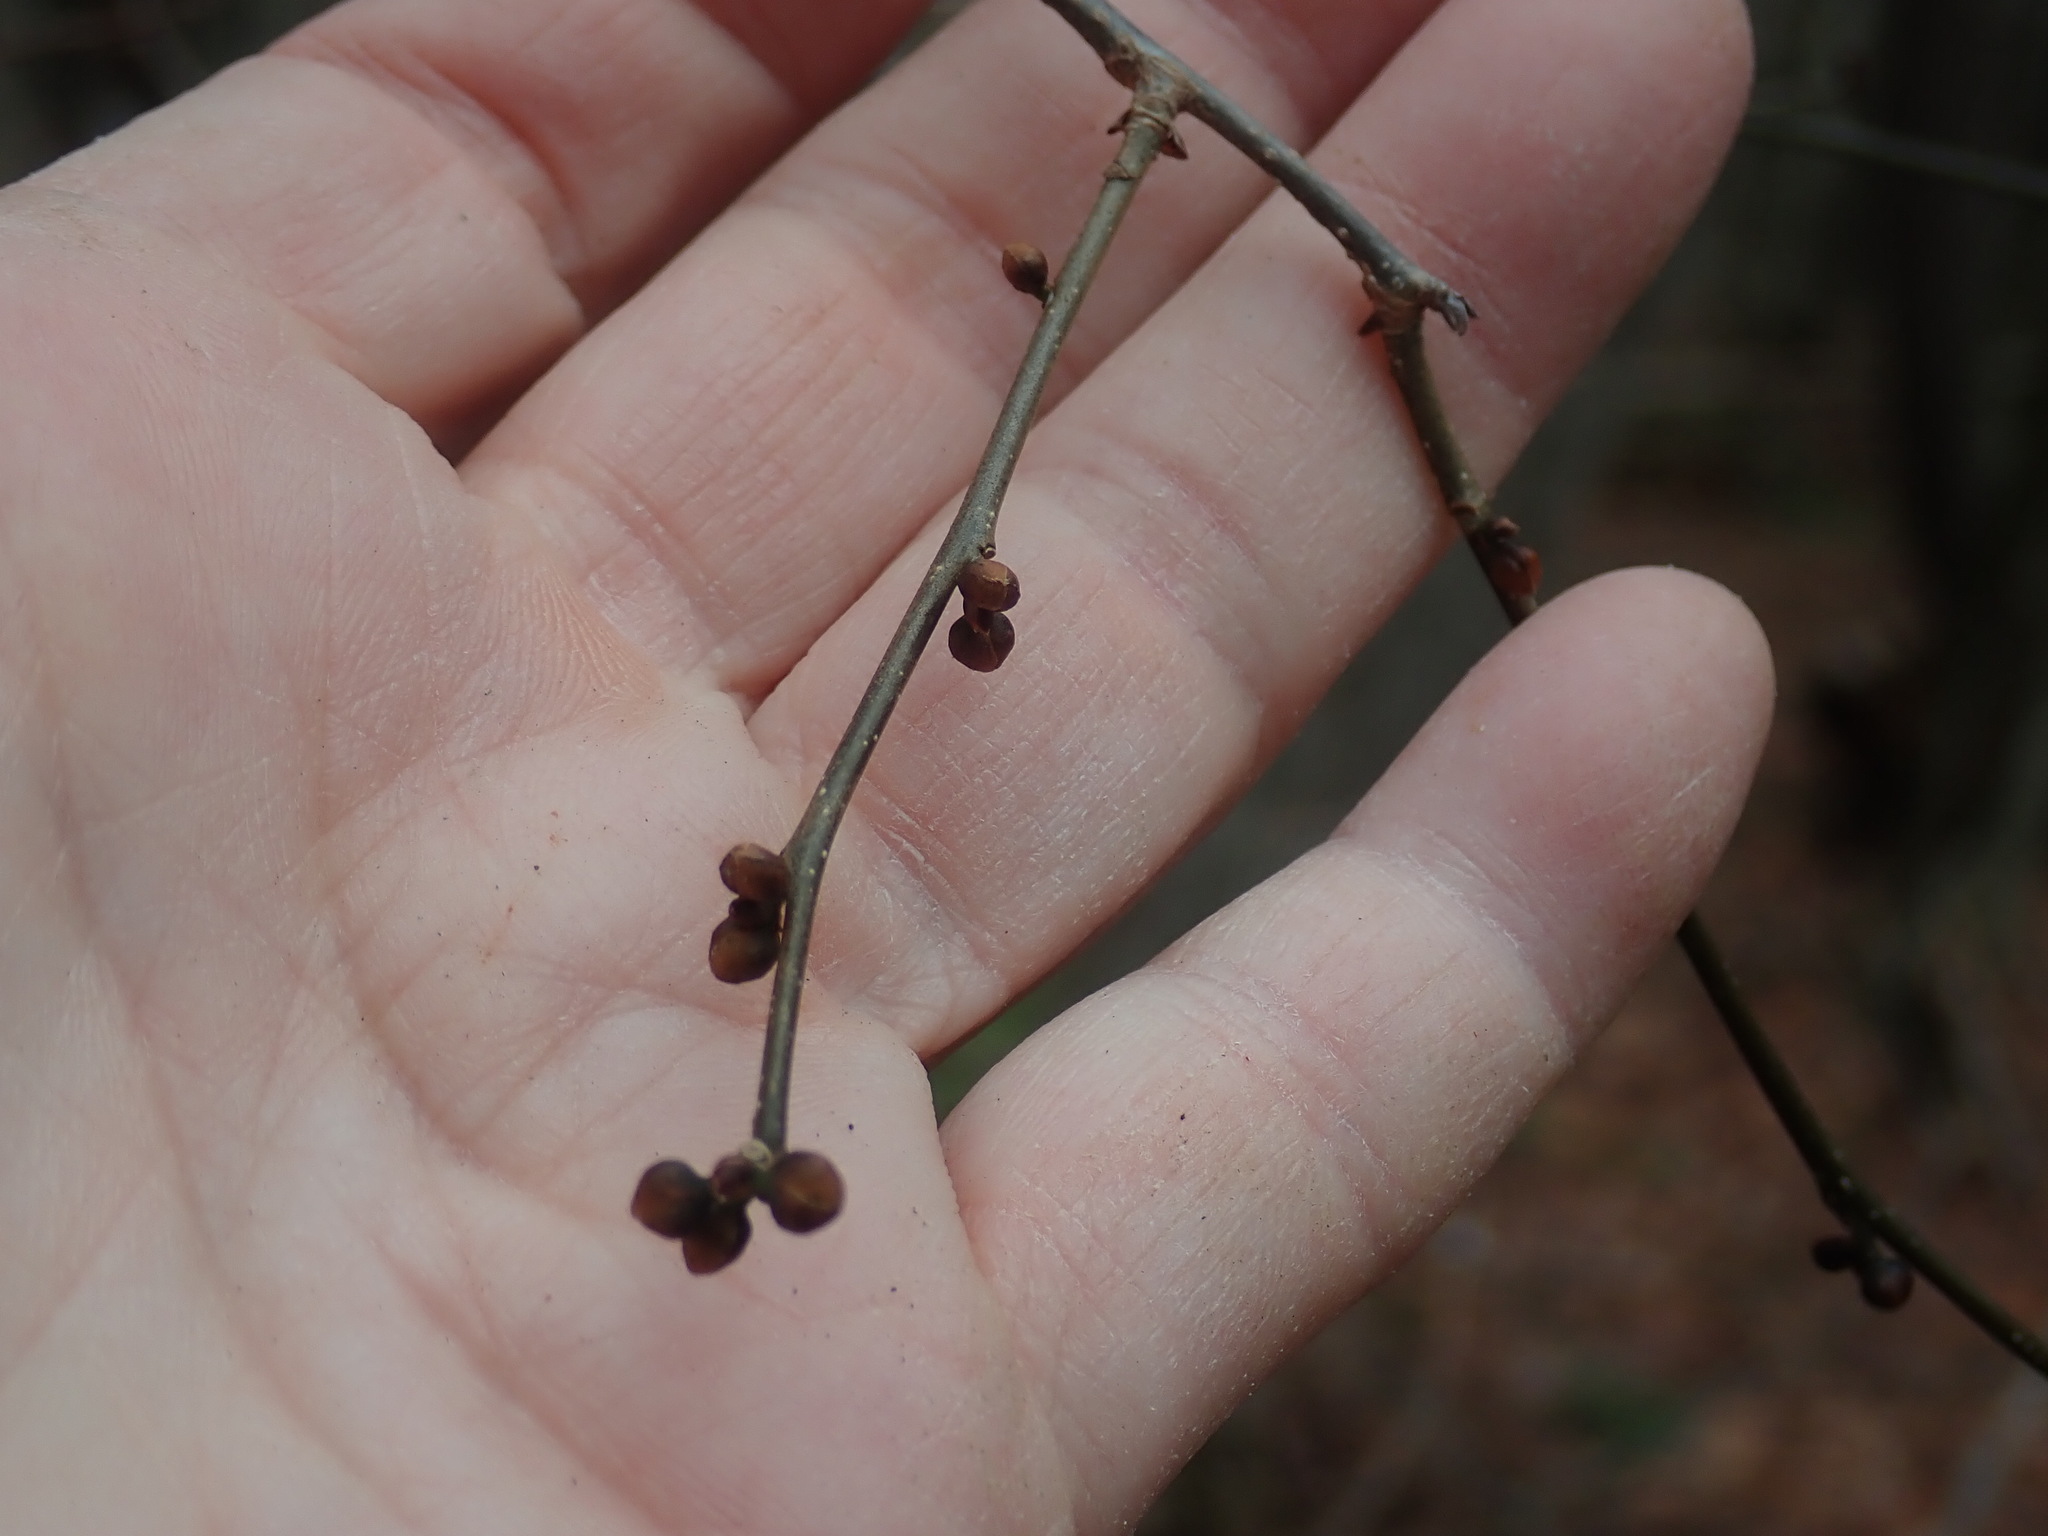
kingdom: Plantae
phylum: Tracheophyta
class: Magnoliopsida
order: Laurales
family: Lauraceae
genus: Lindera
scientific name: Lindera benzoin
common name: Spicebush
